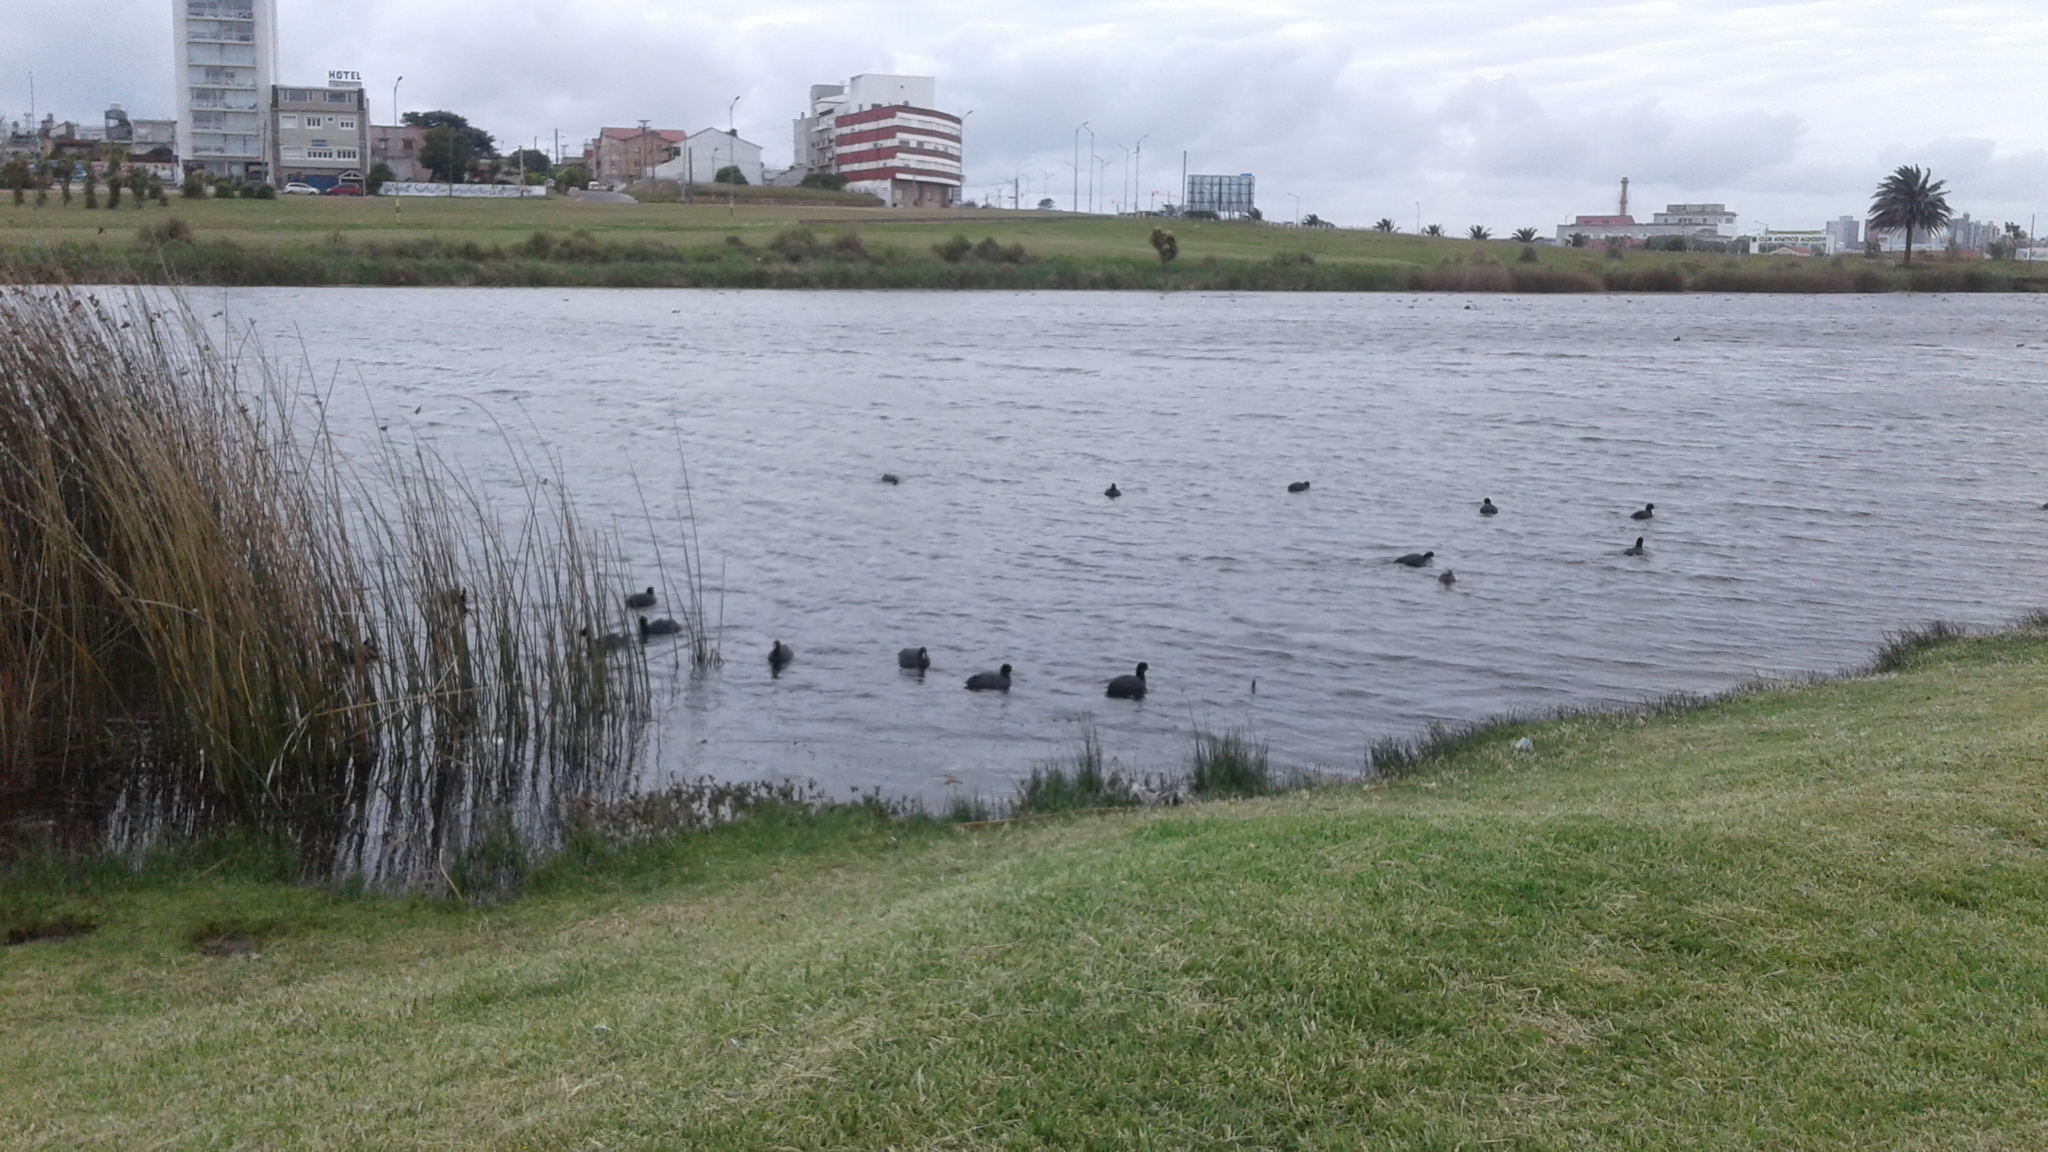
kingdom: Animalia
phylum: Chordata
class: Aves
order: Gruiformes
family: Rallidae
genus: Fulica
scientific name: Fulica leucoptera
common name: White-winged coot
